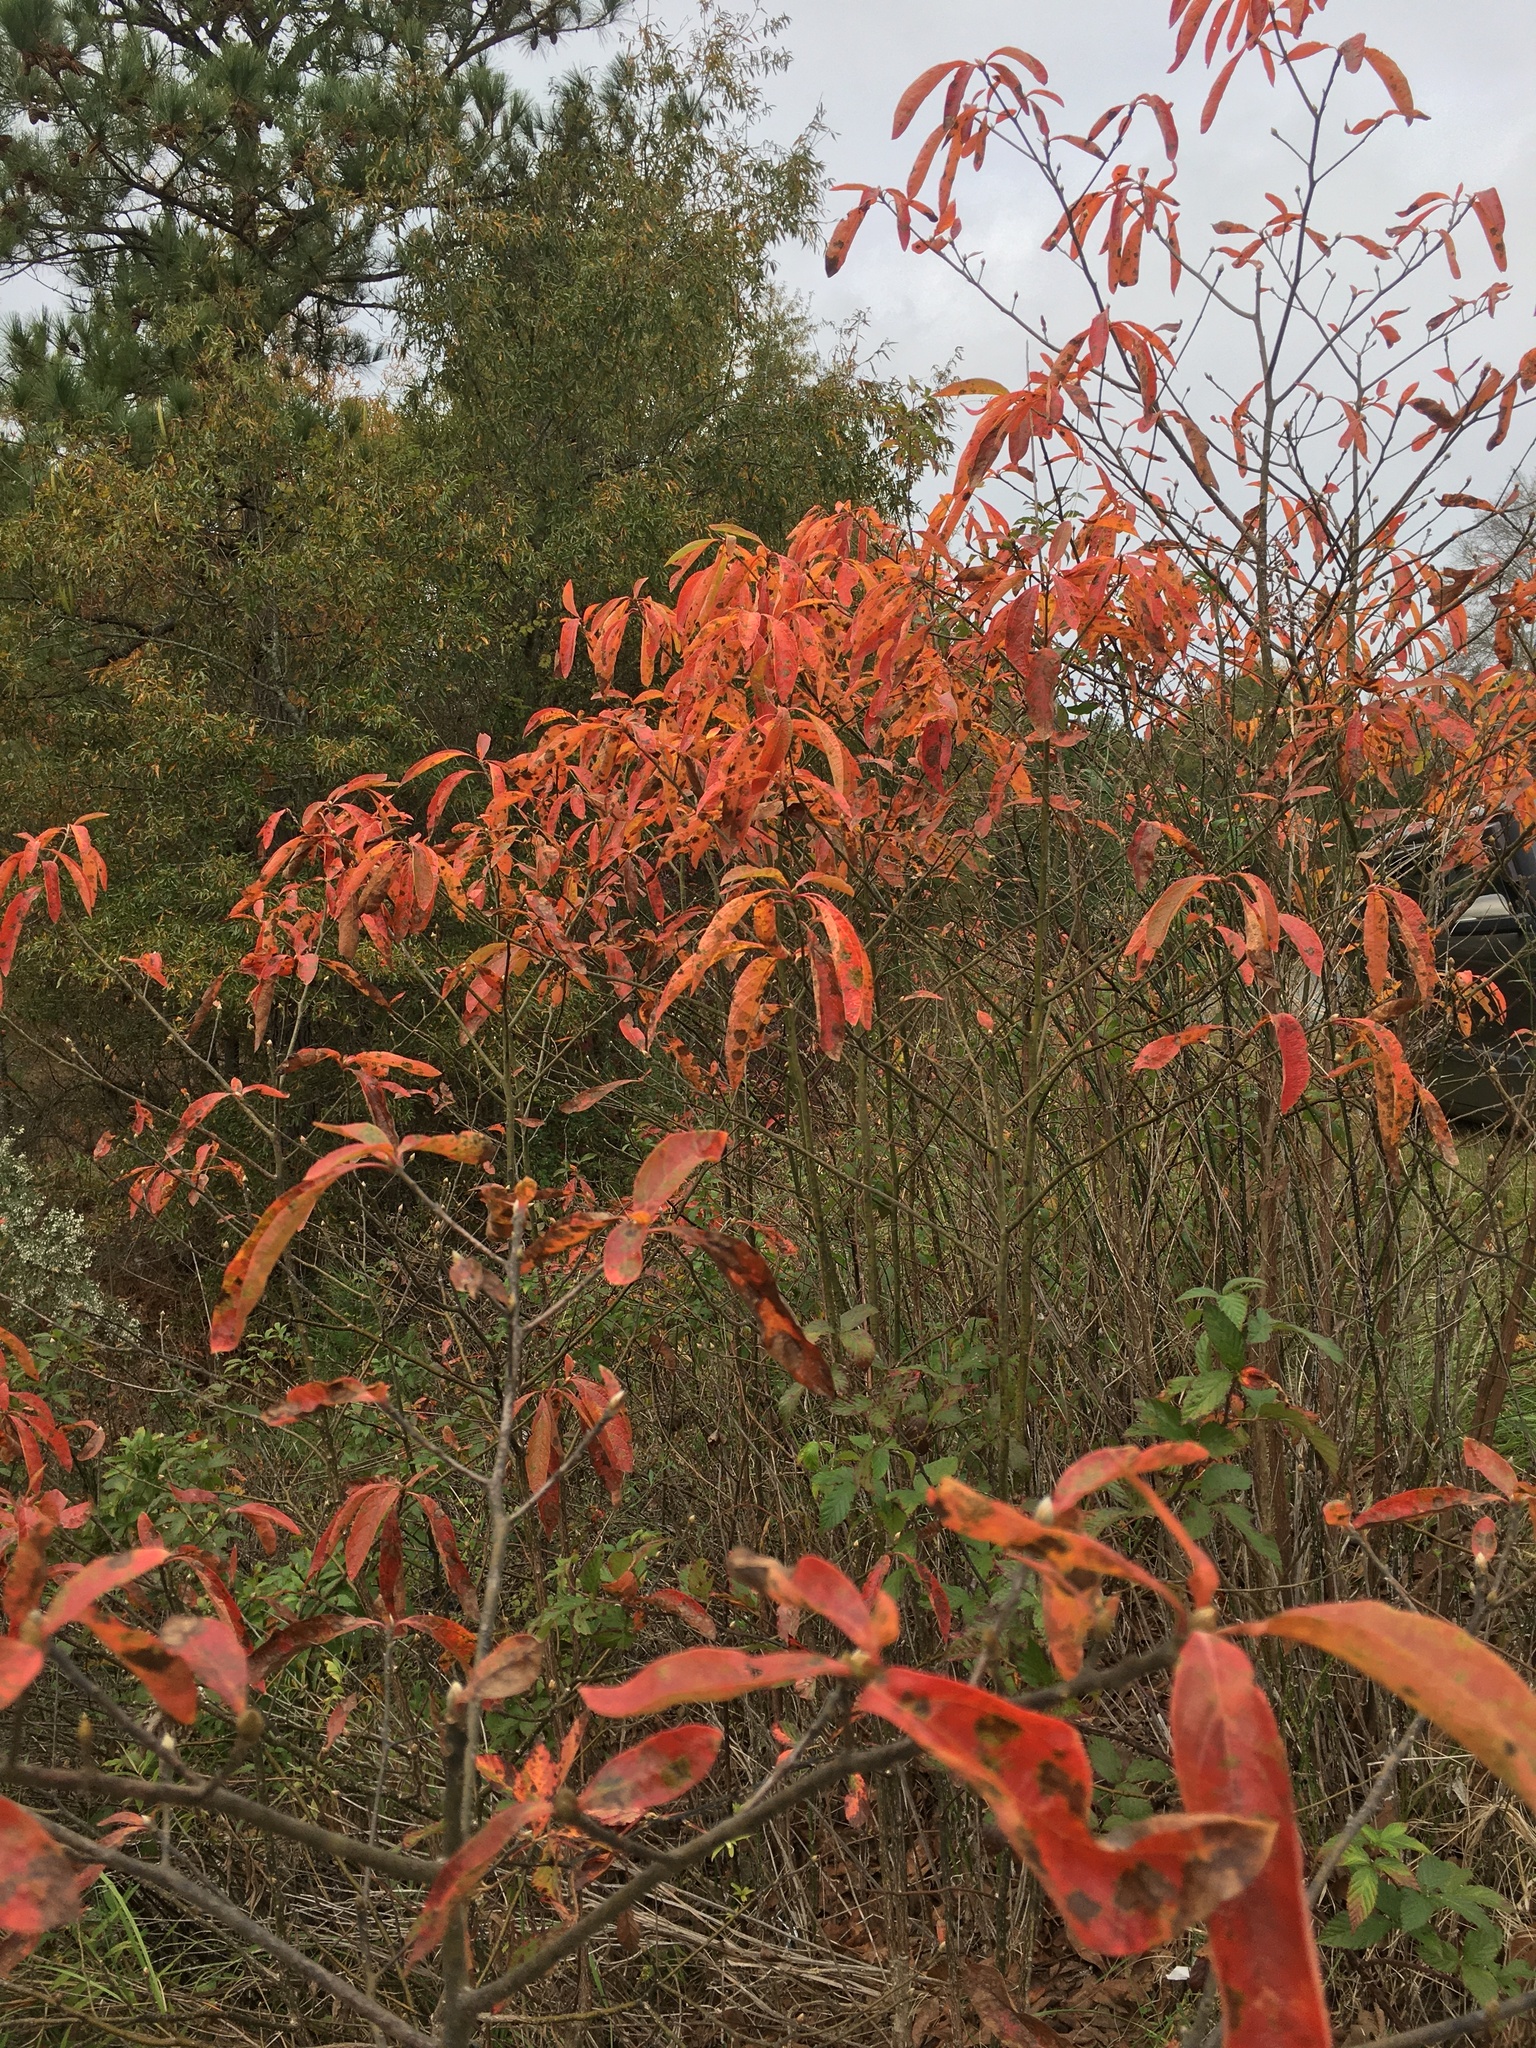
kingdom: Plantae
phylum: Tracheophyta
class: Magnoliopsida
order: Laurales
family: Lauraceae
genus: Sassafras
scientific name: Sassafras albidum
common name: Sassafras
